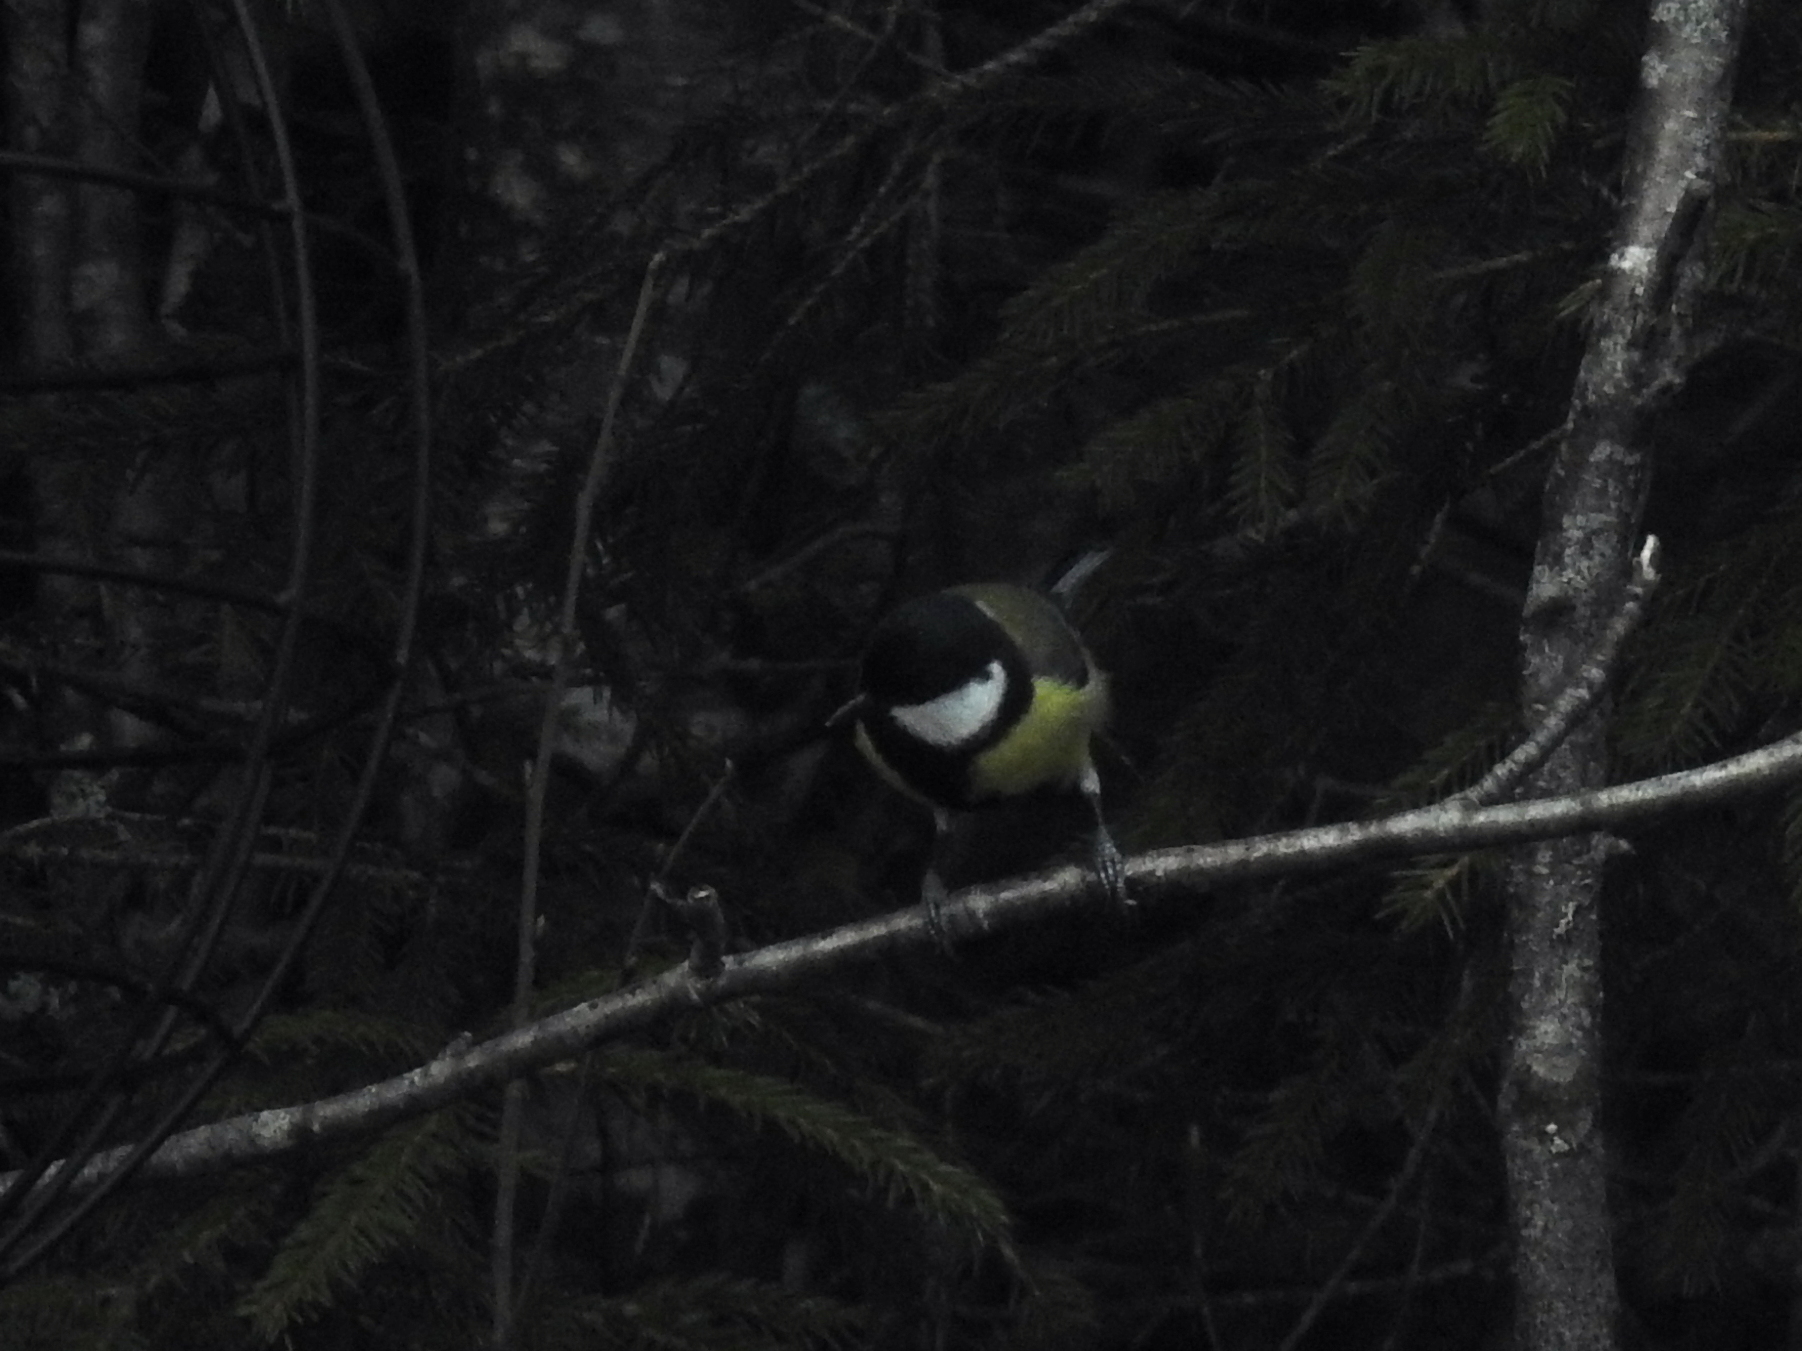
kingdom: Animalia
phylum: Chordata
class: Aves
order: Passeriformes
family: Paridae
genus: Parus
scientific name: Parus major
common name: Great tit
